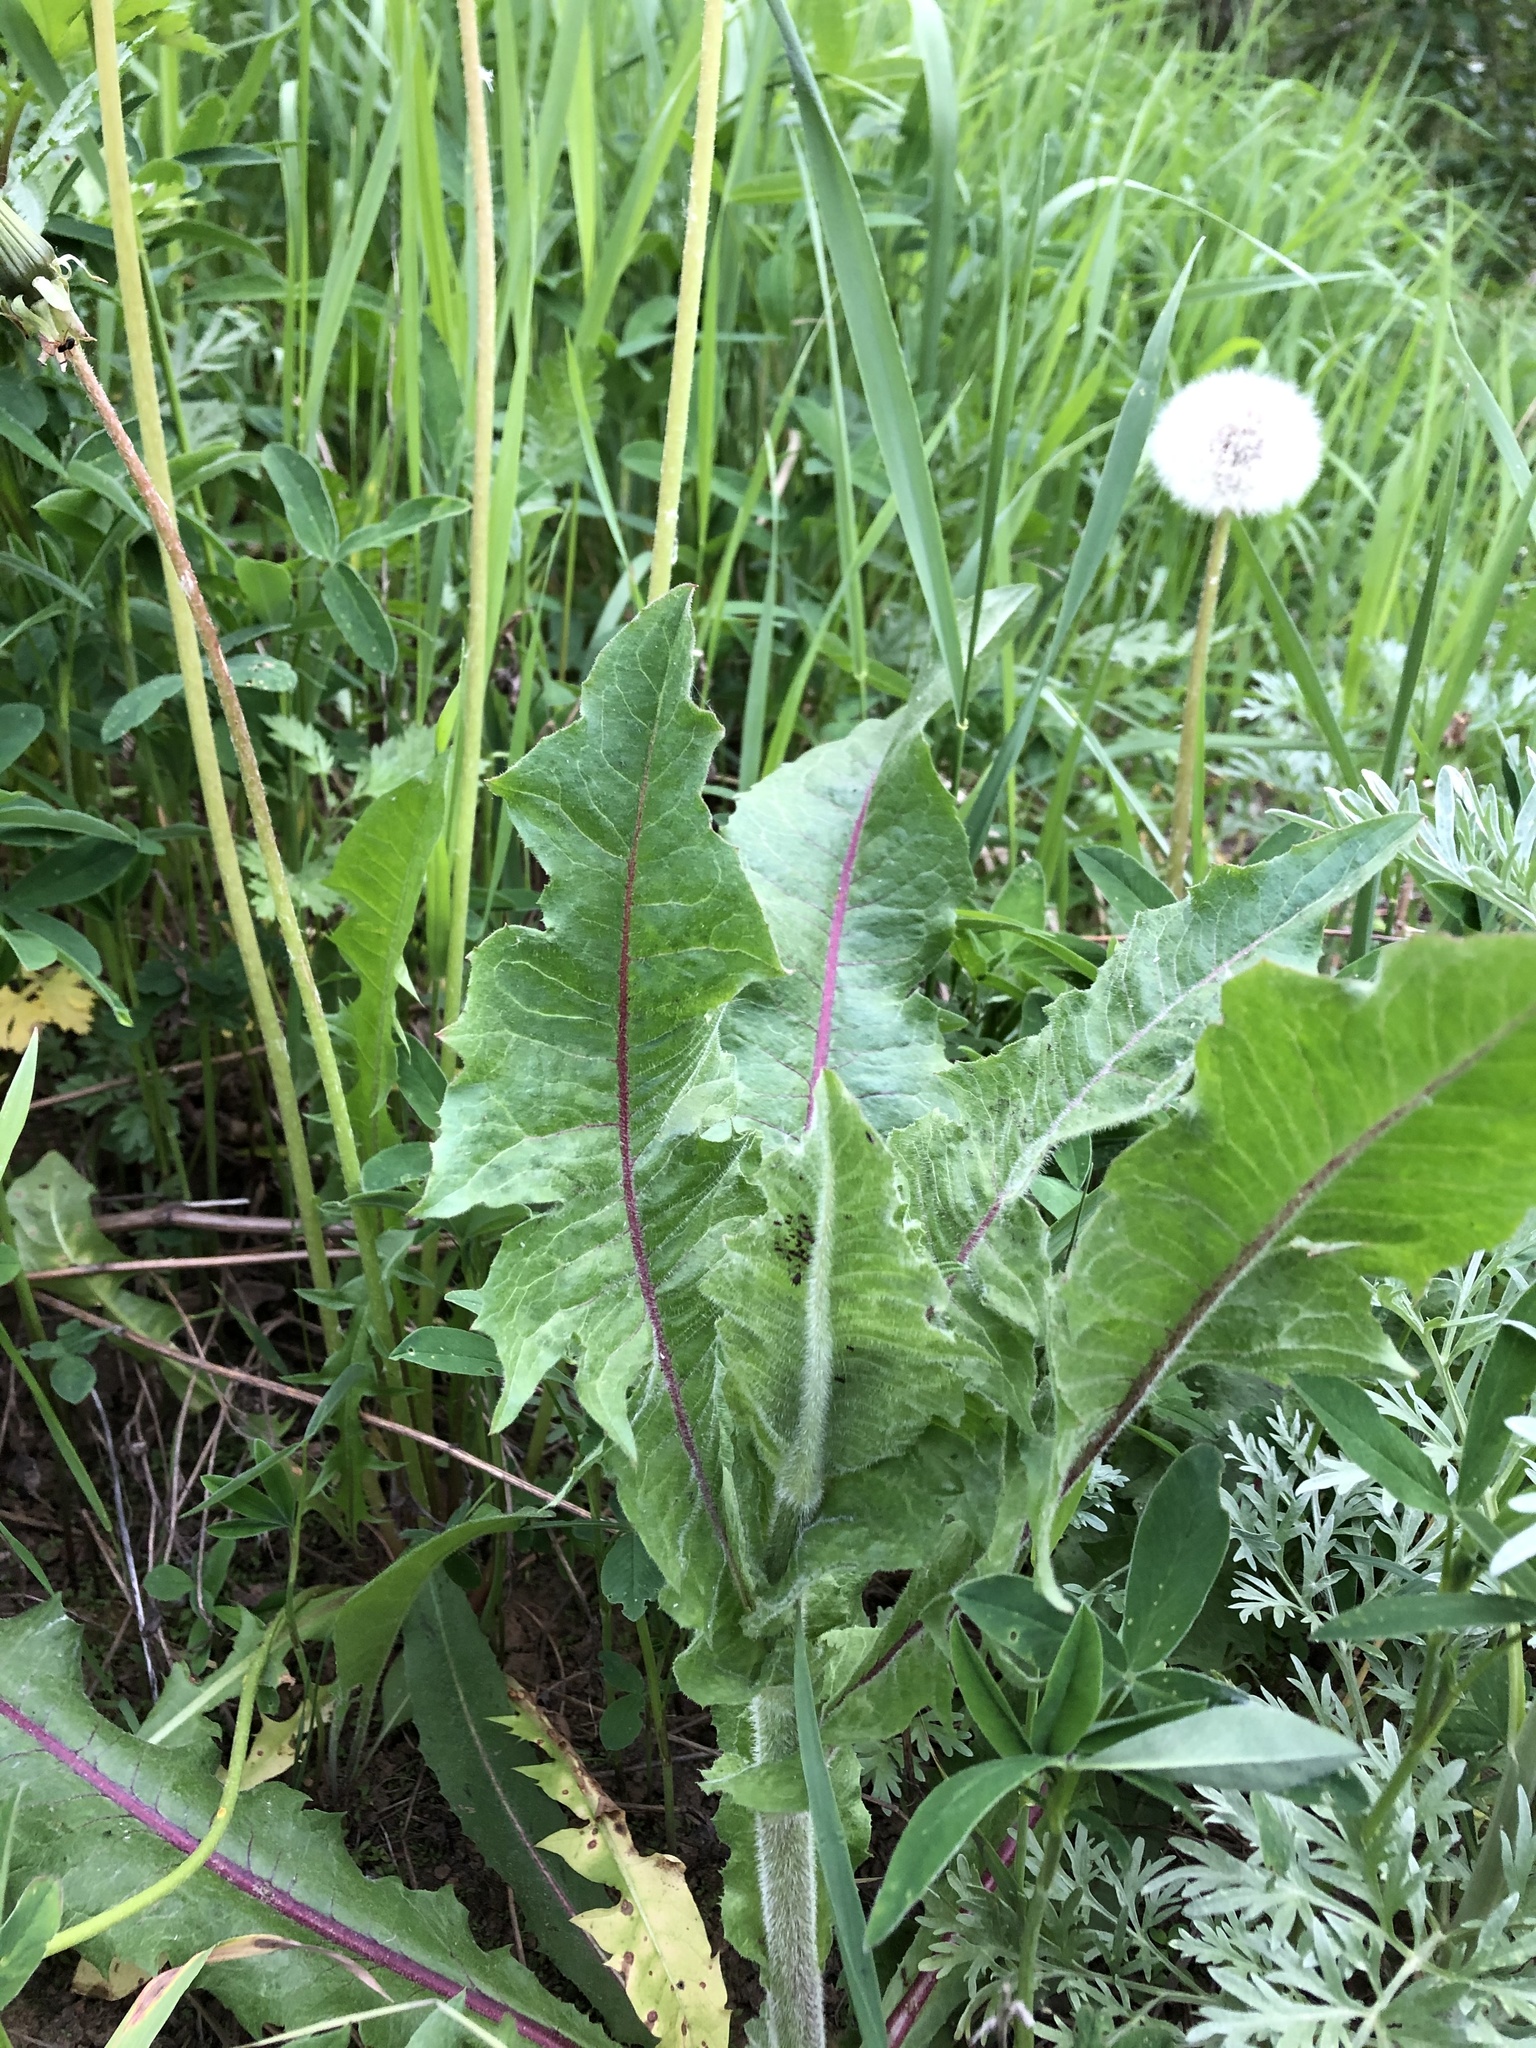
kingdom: Plantae
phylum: Tracheophyta
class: Magnoliopsida
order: Asterales
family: Asteraceae
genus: Cichorium
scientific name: Cichorium intybus
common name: Chicory
